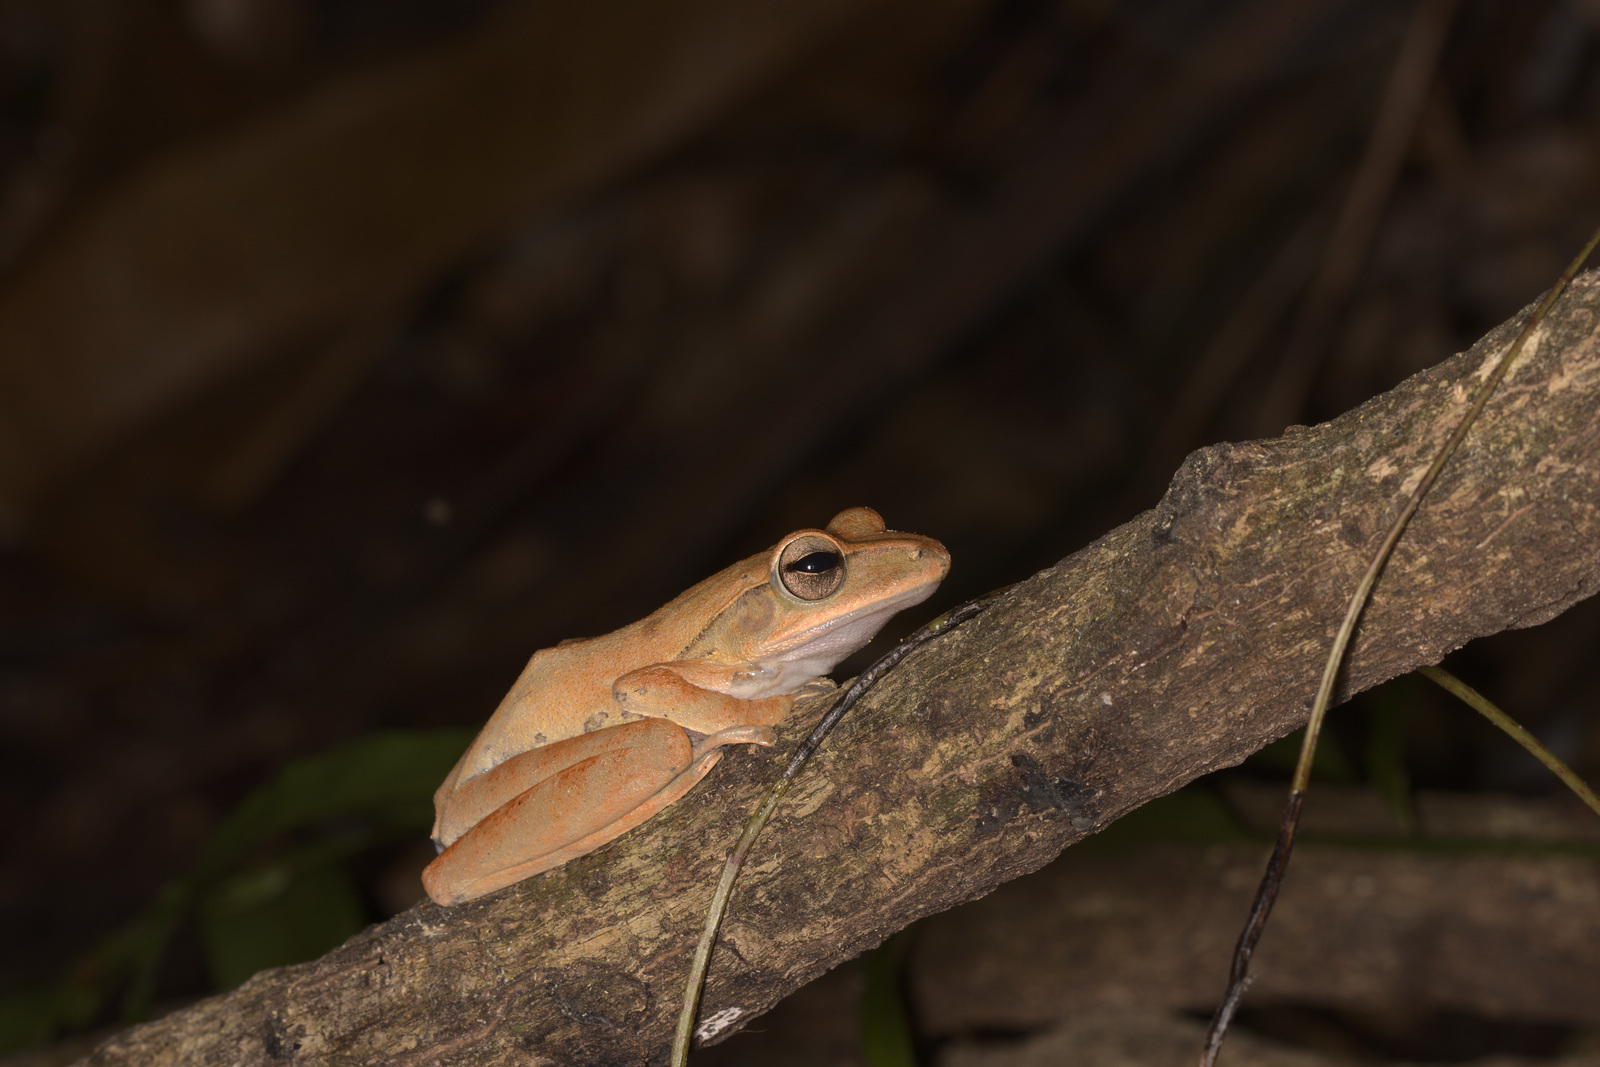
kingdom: Animalia
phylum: Chordata
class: Amphibia
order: Anura
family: Rhacophoridae
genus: Polypedates
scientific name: Polypedates leucomystax
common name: Common tree frog/four-lined tree frog
